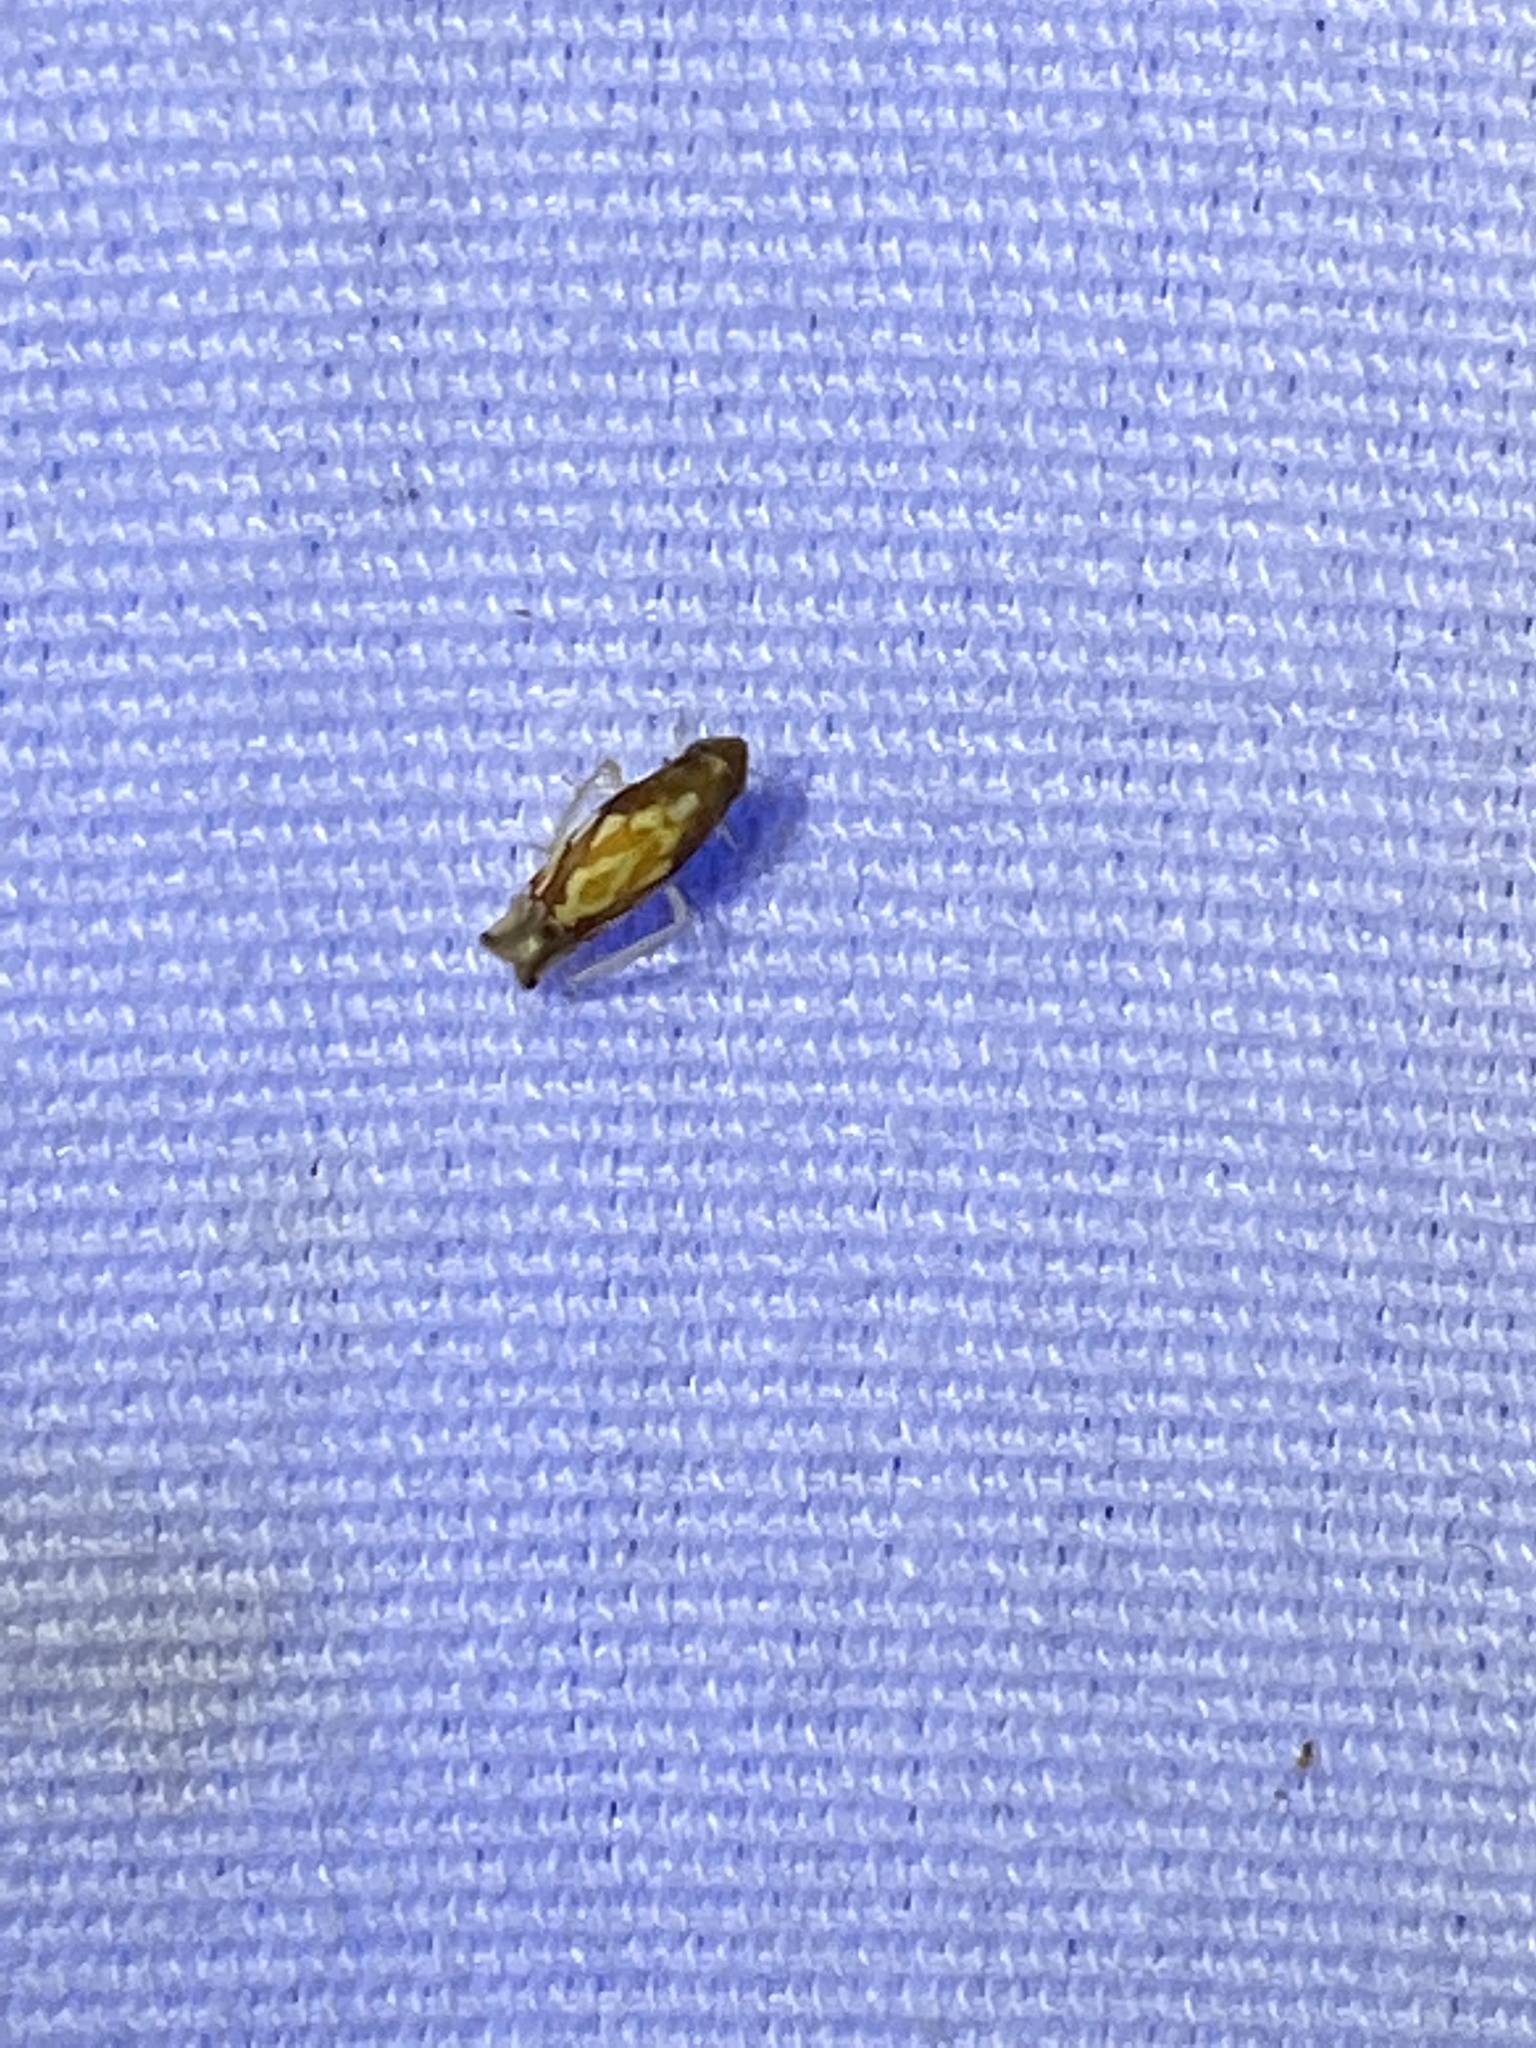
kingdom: Animalia
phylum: Arthropoda
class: Insecta
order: Hemiptera
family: Cicadellidae
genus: Erythroneura
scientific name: Erythroneura cancellata
